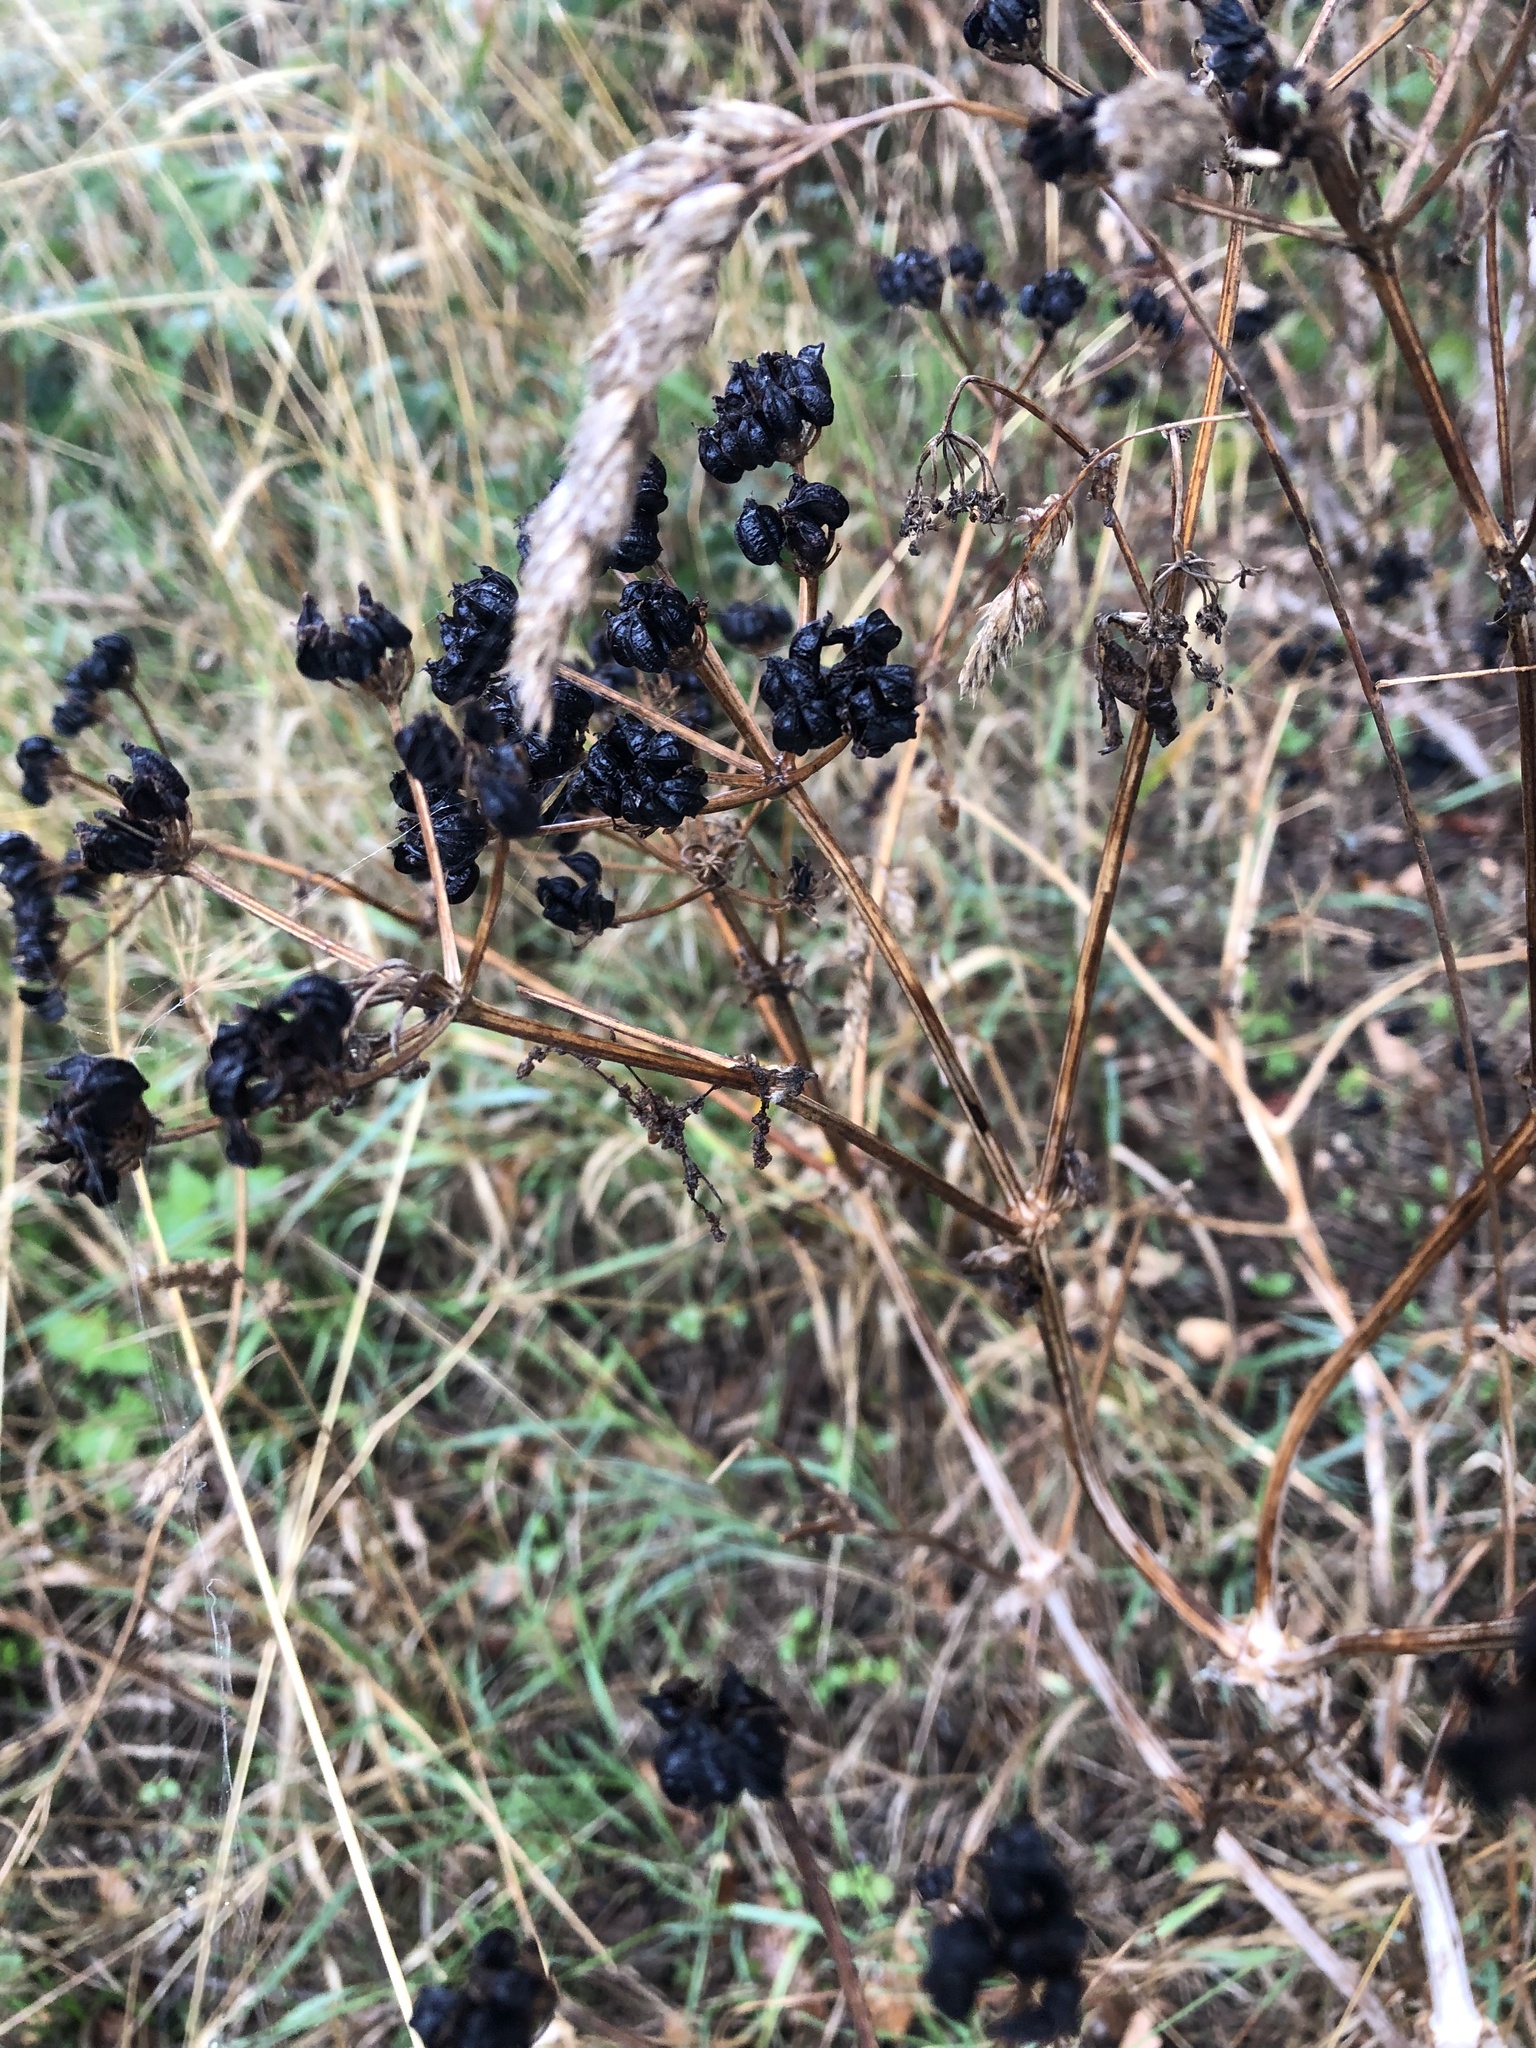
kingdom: Plantae
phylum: Tracheophyta
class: Magnoliopsida
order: Apiales
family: Apiaceae
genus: Smyrnium
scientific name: Smyrnium olusatrum
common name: Alexanders
